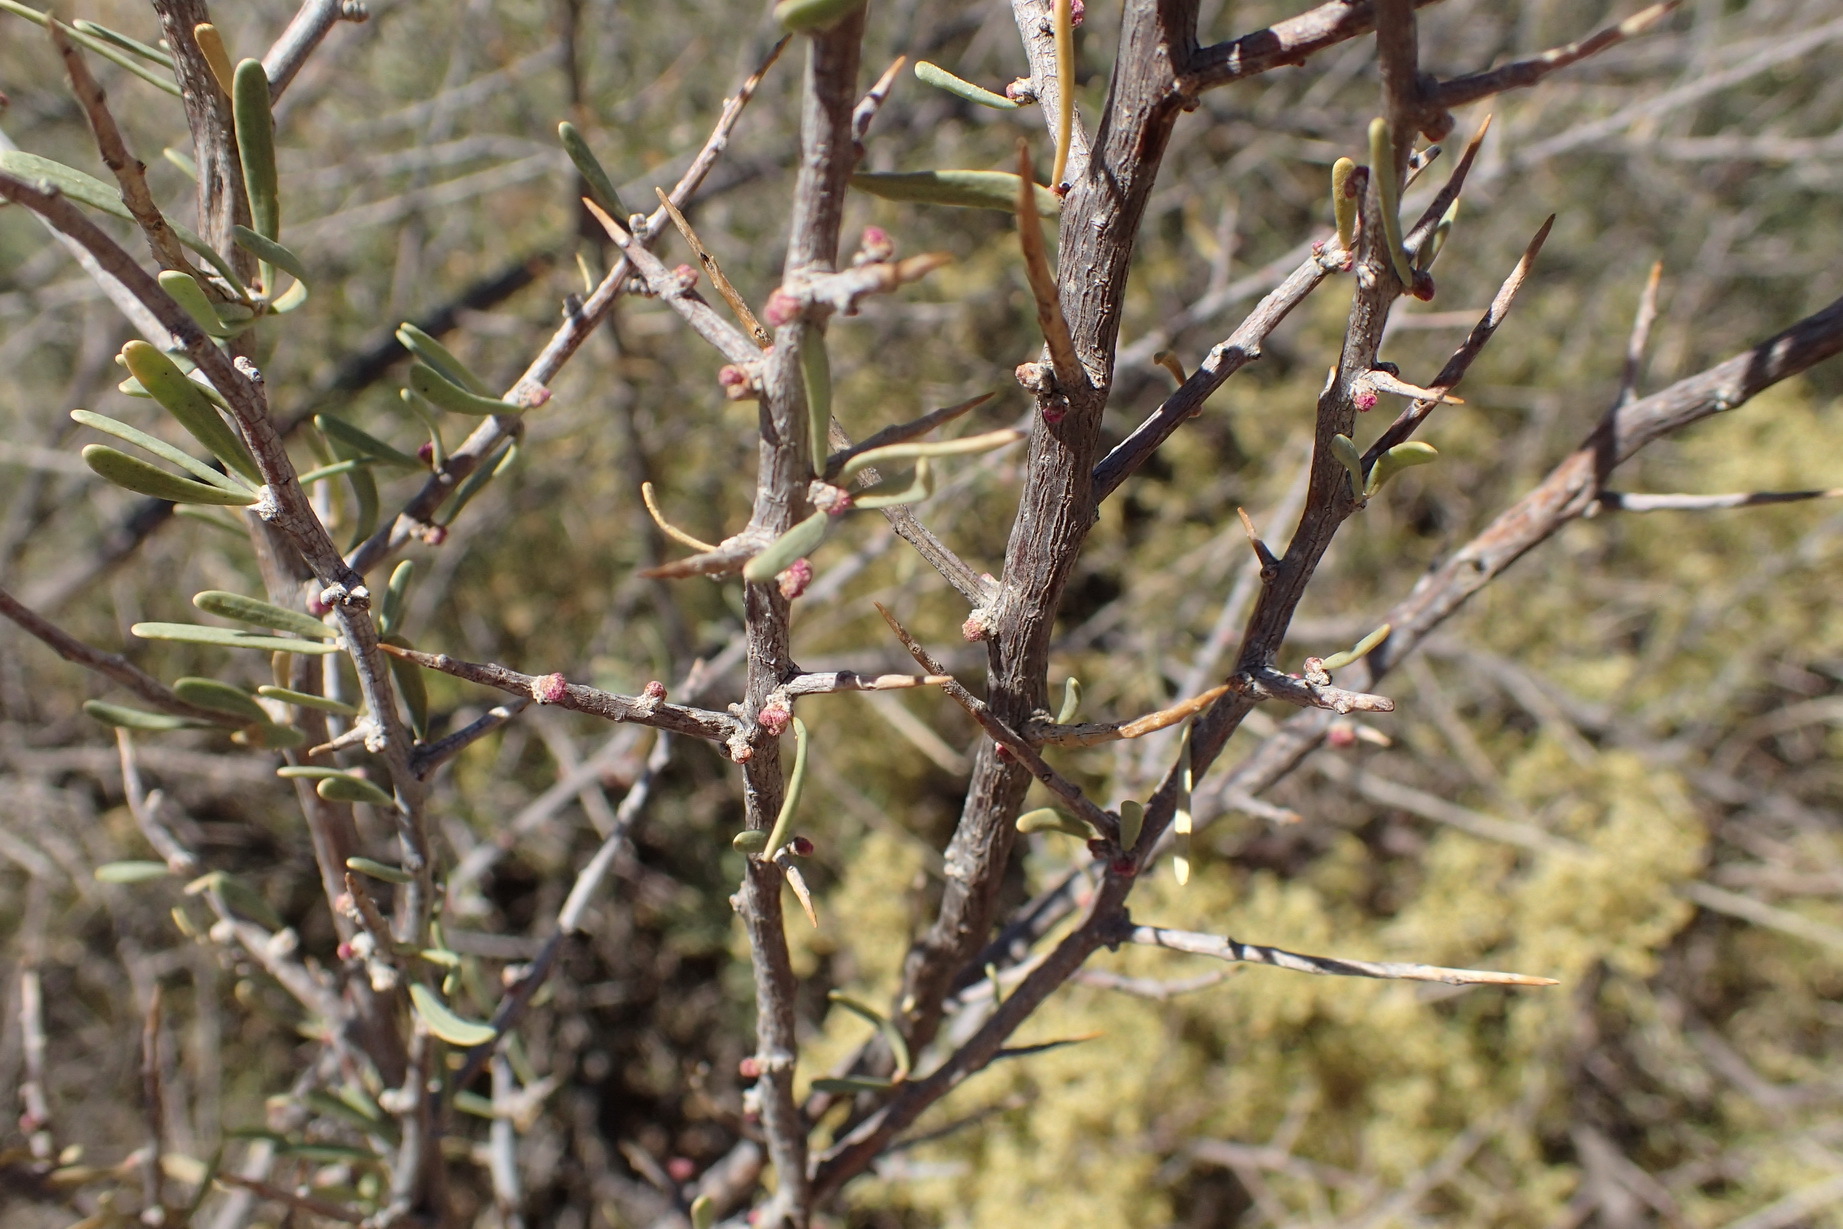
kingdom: Plantae
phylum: Tracheophyta
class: Magnoliopsida
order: Caryophyllales
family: Nyctaginaceae
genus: Phaeoptilum
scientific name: Phaeoptilum spinosum
